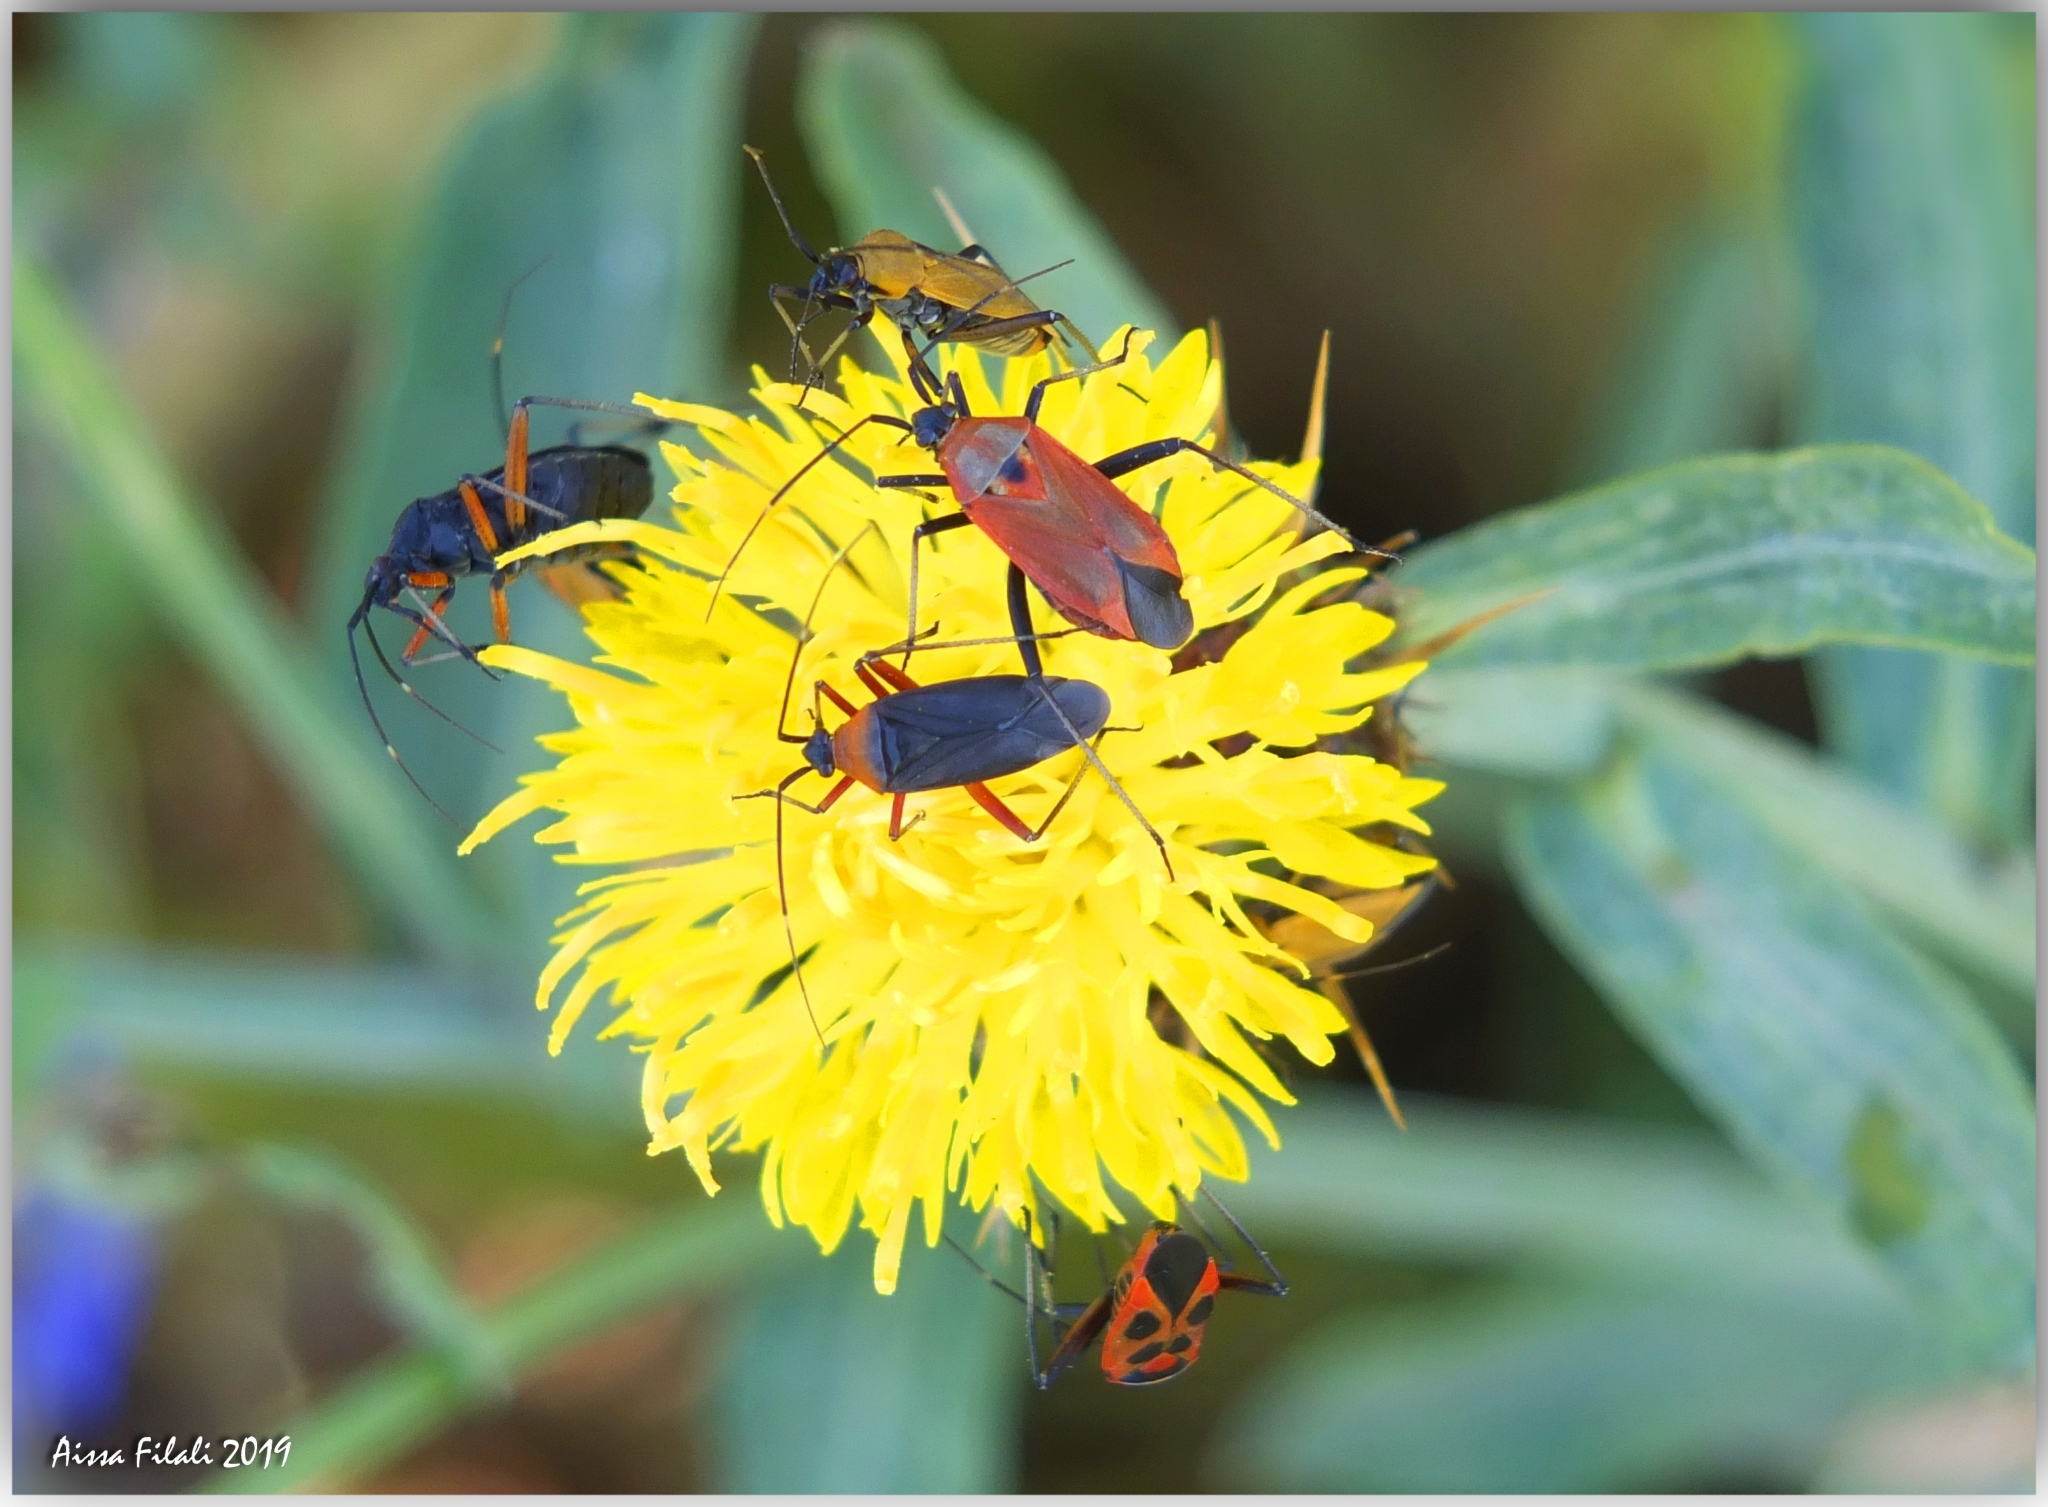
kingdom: Animalia
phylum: Arthropoda
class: Insecta
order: Hemiptera
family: Miridae
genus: Calocoris
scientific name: Calocoris nemoralis
